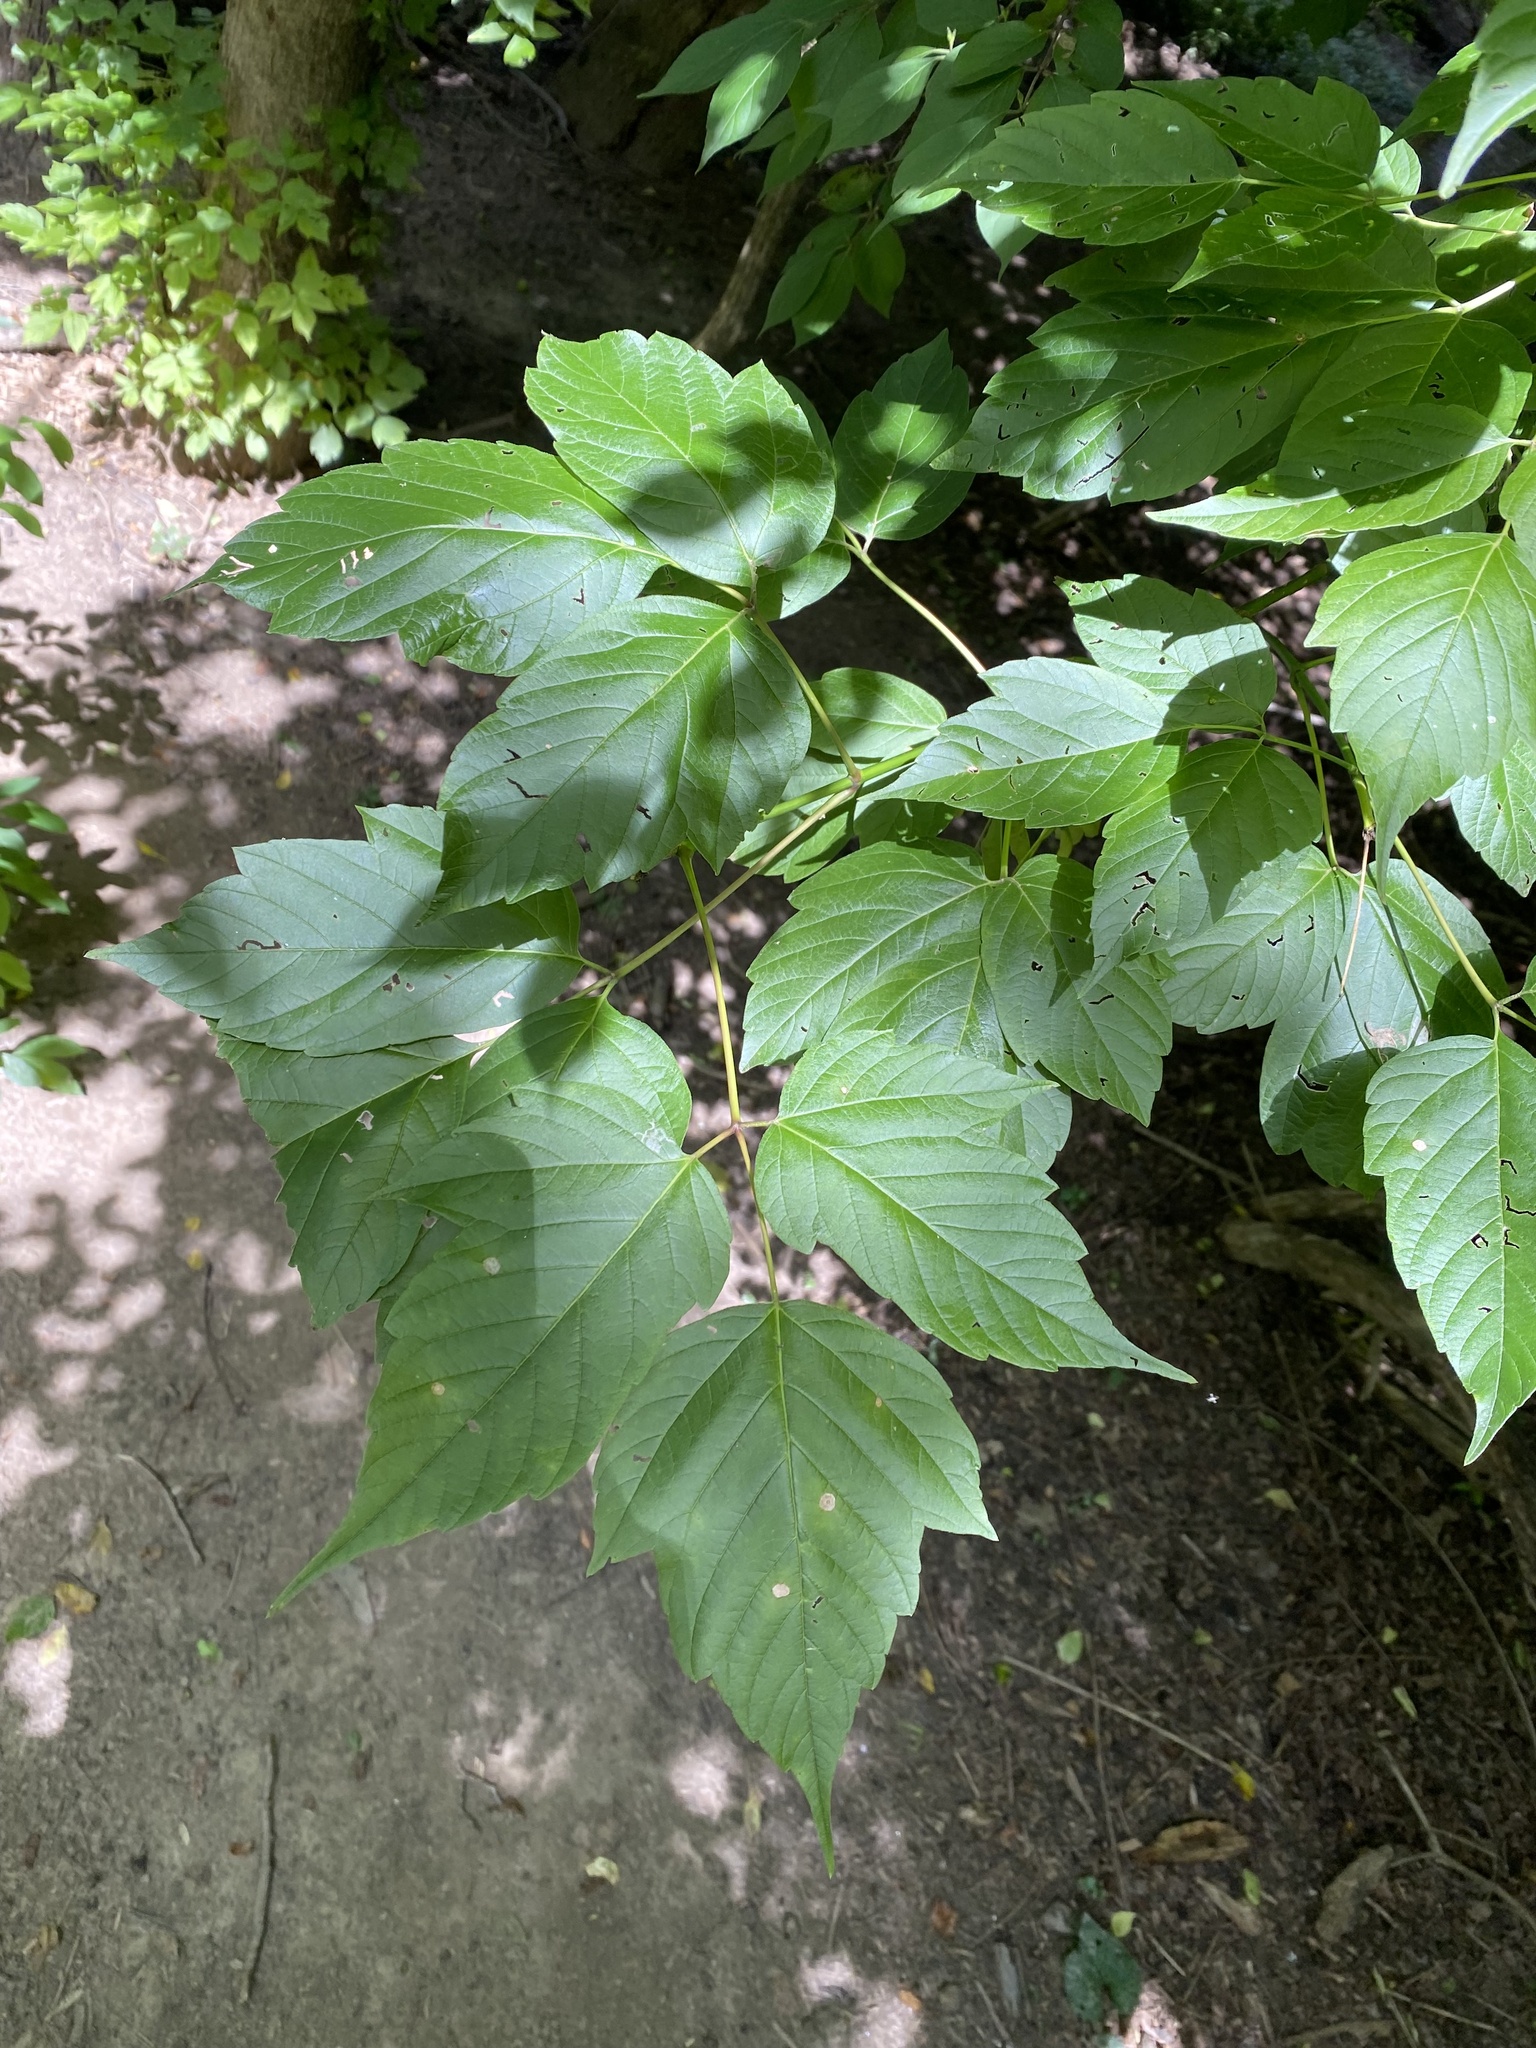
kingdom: Plantae
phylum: Tracheophyta
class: Magnoliopsida
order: Sapindales
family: Sapindaceae
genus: Acer
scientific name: Acer negundo
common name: Ashleaf maple
